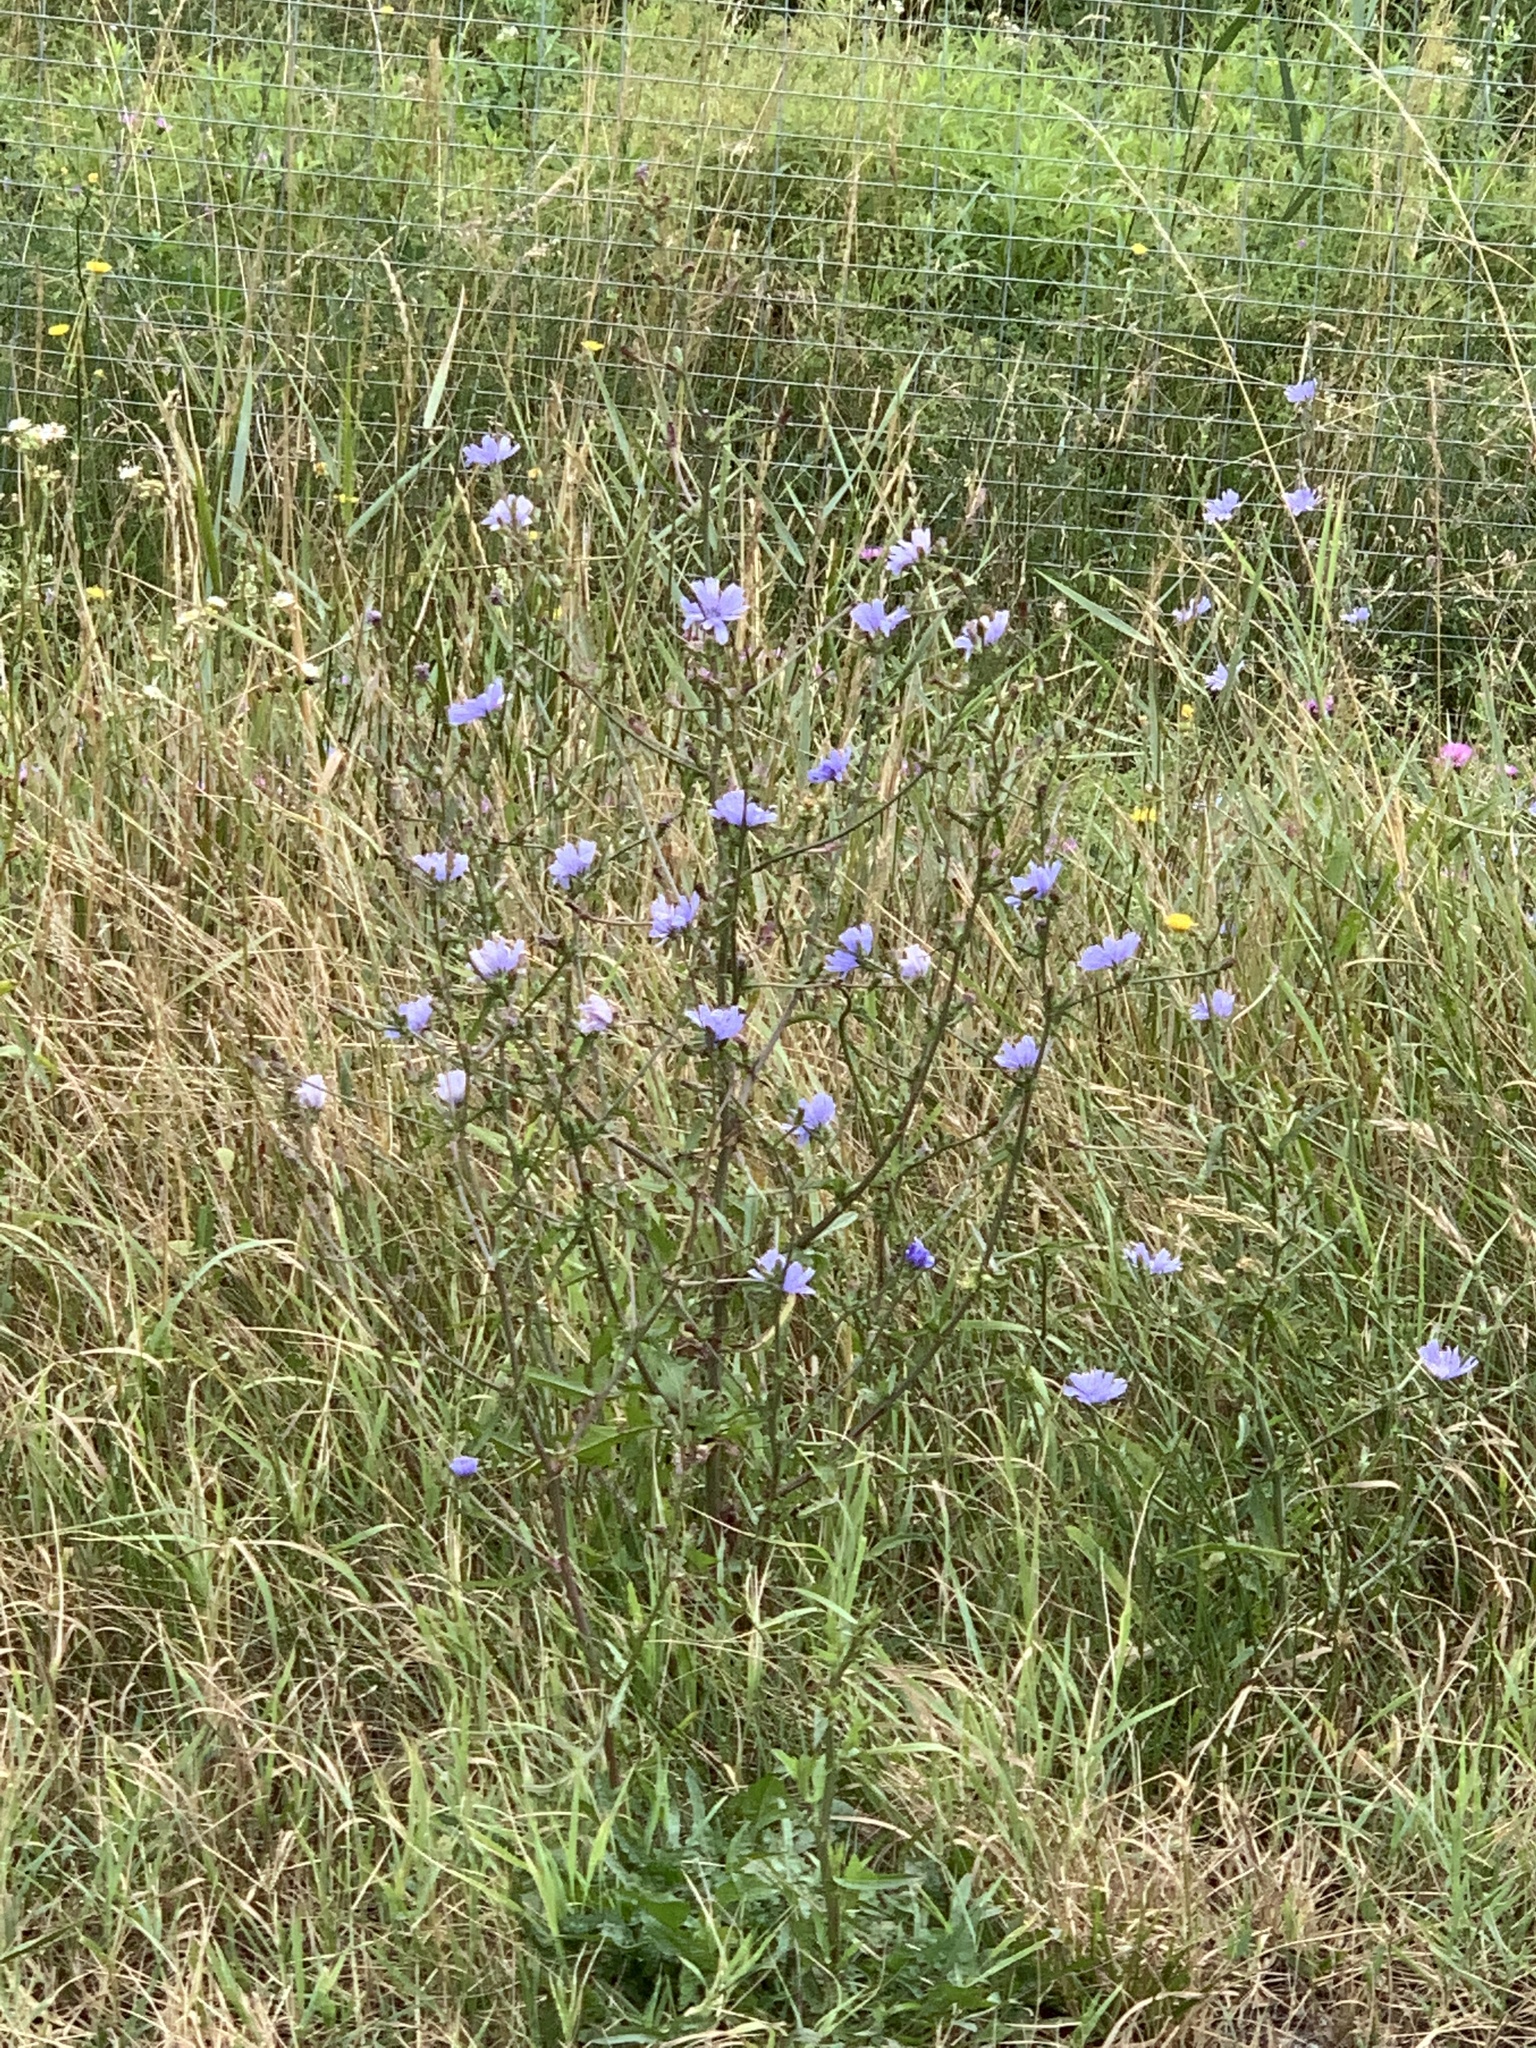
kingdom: Plantae
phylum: Tracheophyta
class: Magnoliopsida
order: Asterales
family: Asteraceae
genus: Cichorium
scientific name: Cichorium intybus
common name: Chicory
